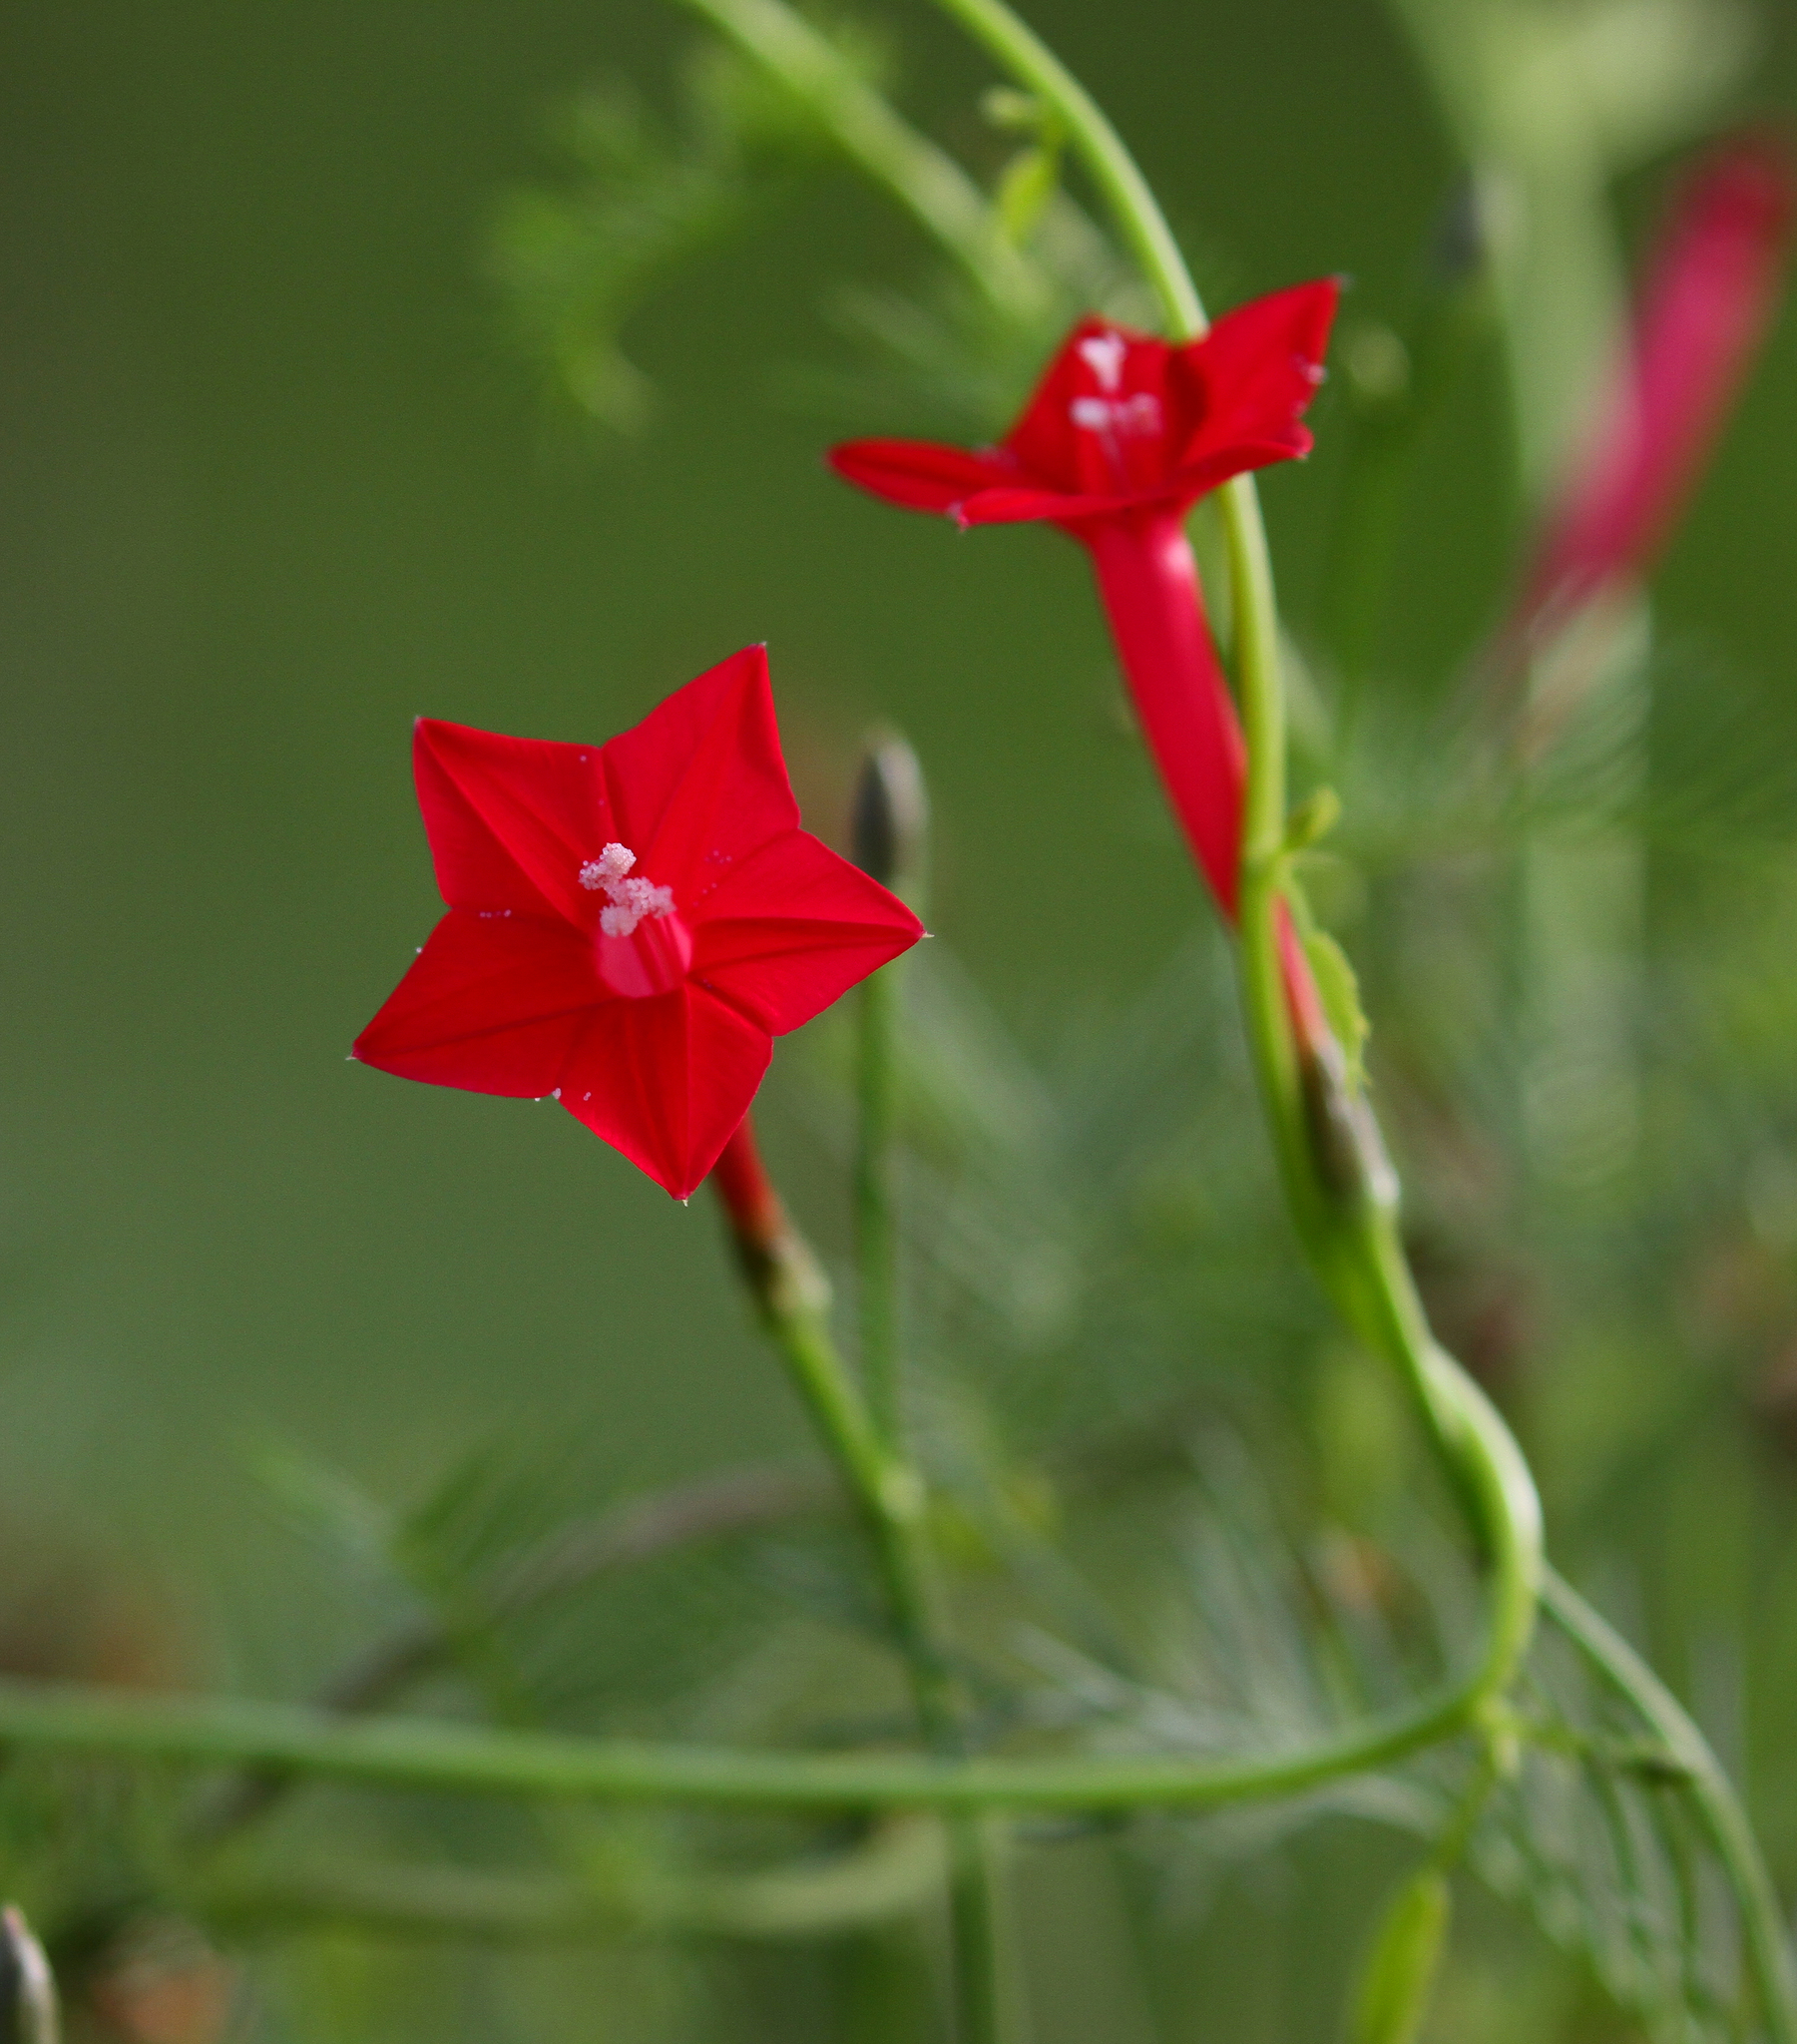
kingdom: Plantae
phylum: Tracheophyta
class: Magnoliopsida
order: Solanales
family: Convolvulaceae
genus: Ipomoea
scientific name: Ipomoea quamoclit
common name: Cypress vine
